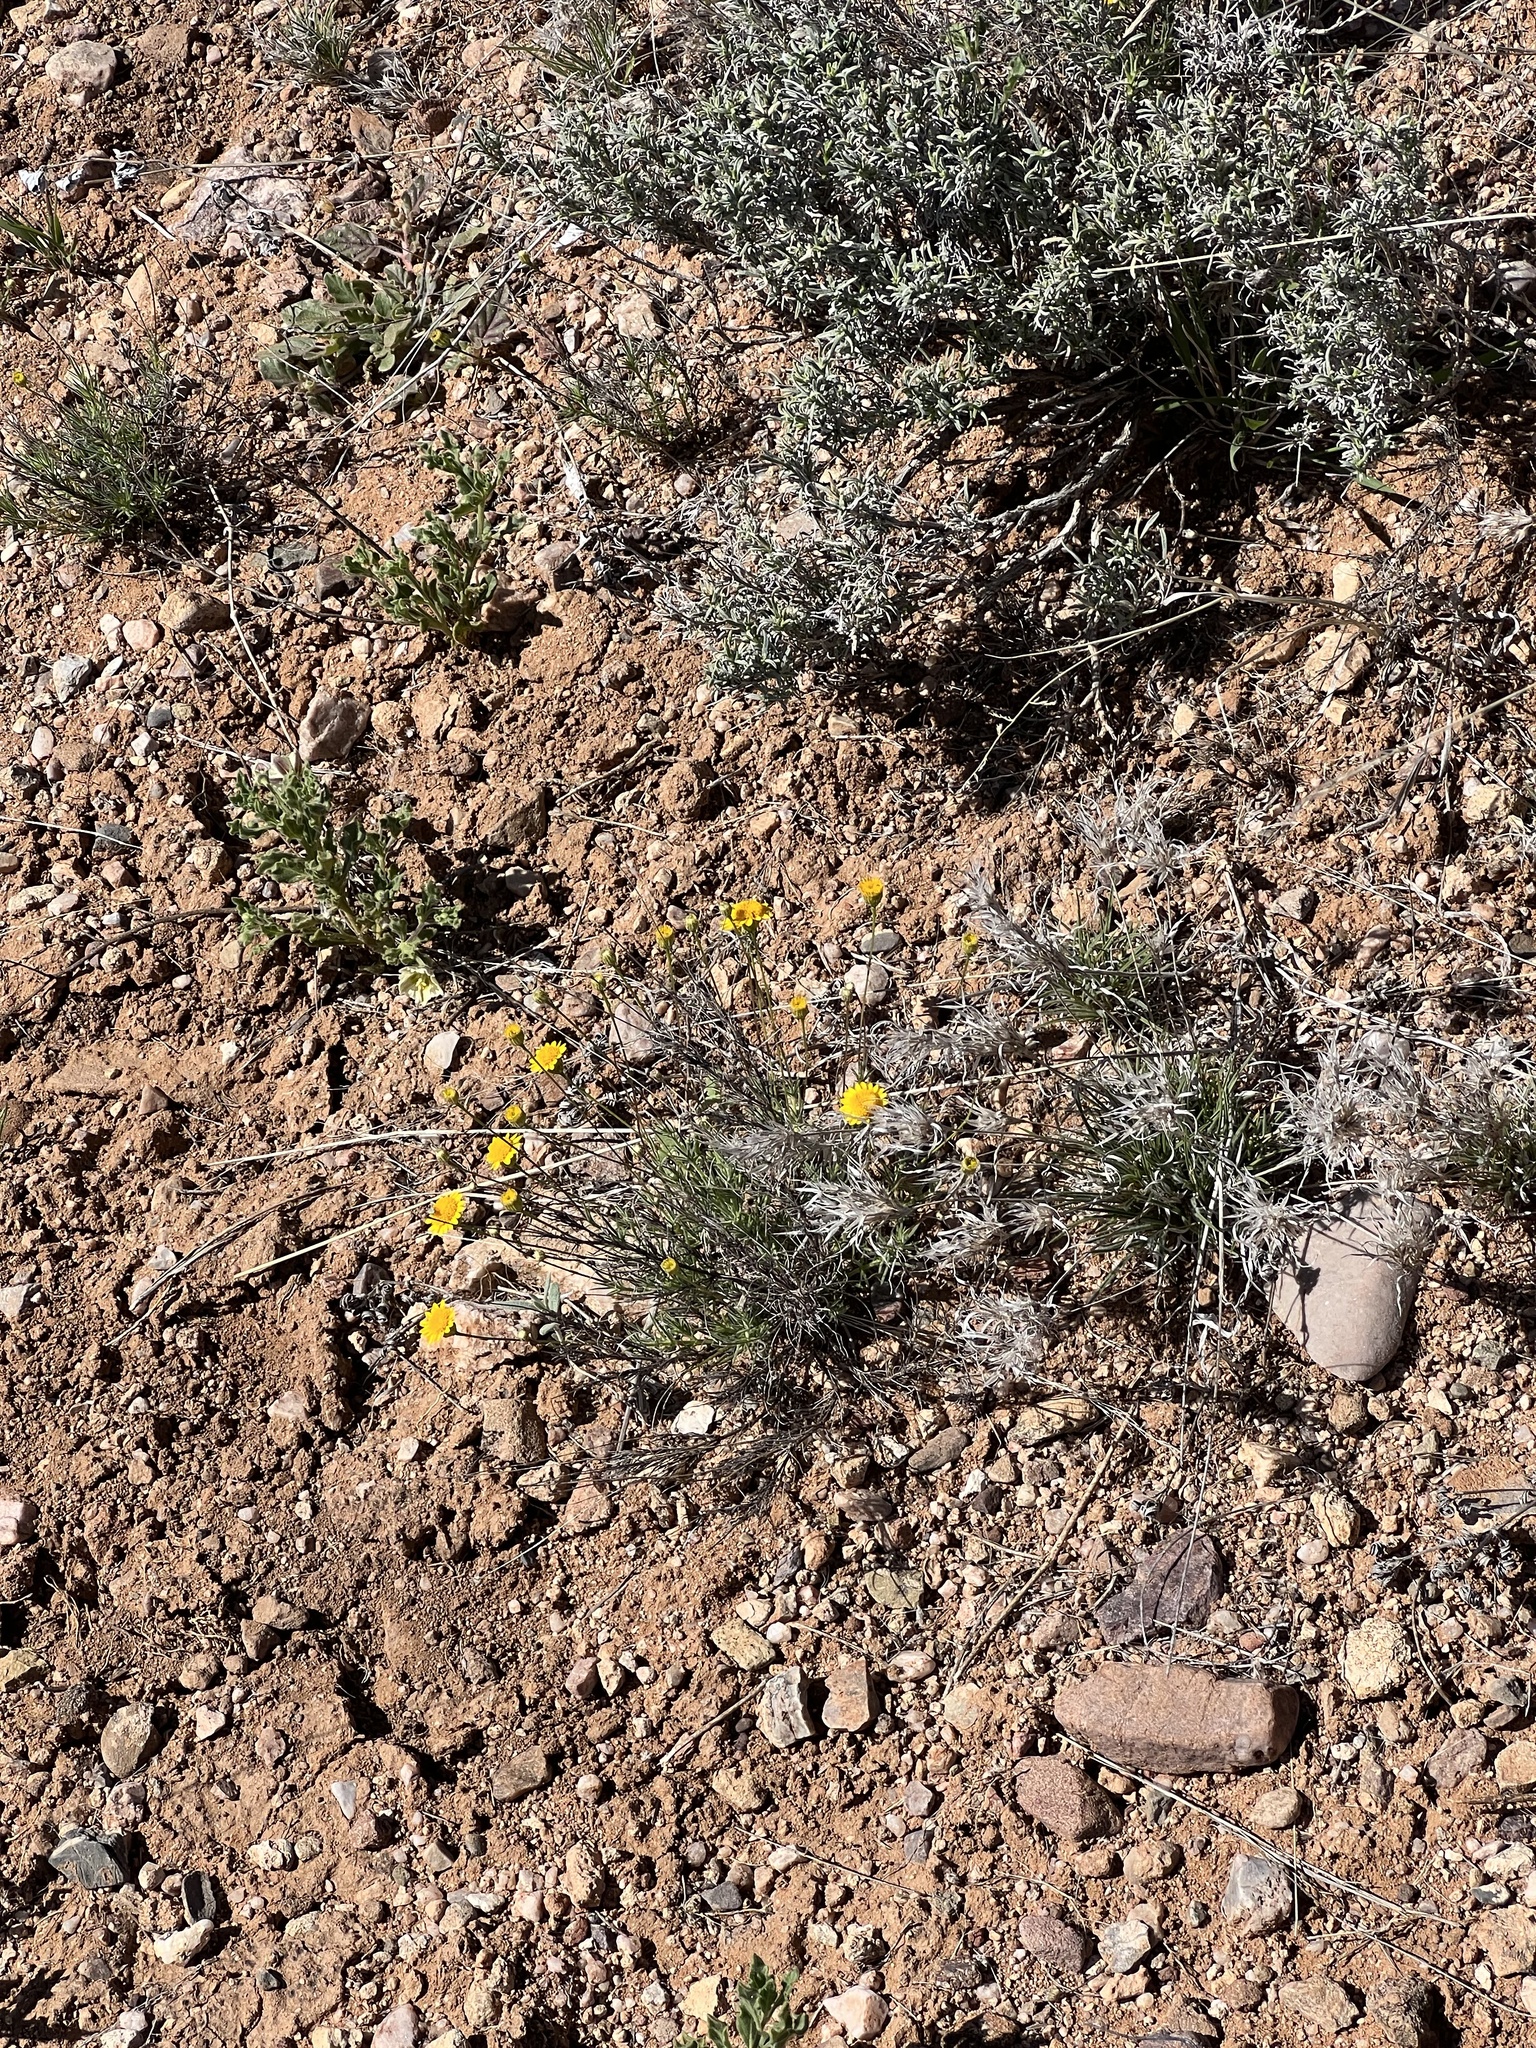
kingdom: Plantae
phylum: Tracheophyta
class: Magnoliopsida
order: Asterales
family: Asteraceae
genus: Thymophylla
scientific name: Thymophylla pentachaeta
